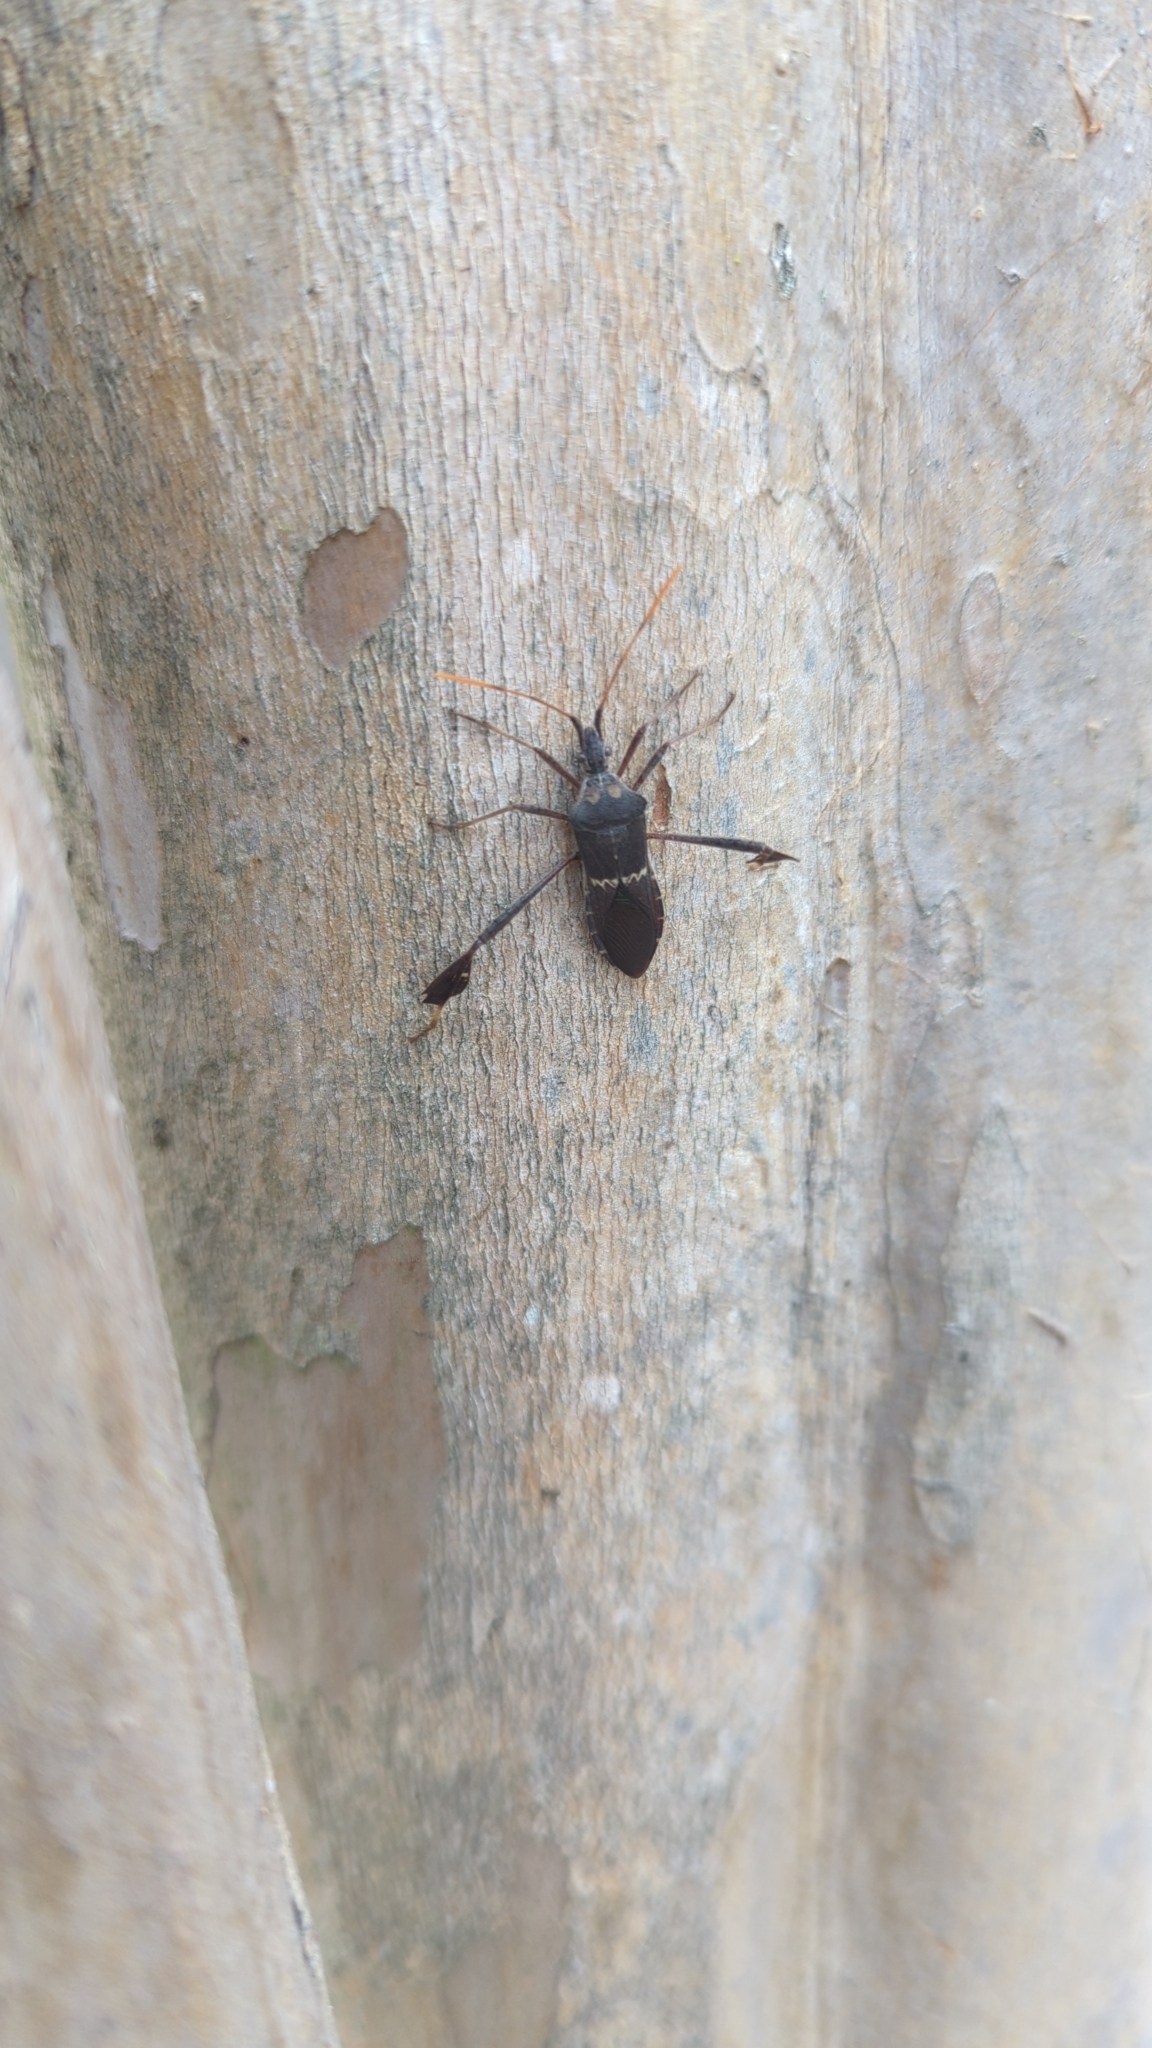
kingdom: Animalia
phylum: Arthropoda
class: Insecta
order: Hemiptera
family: Coreidae
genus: Leptoglossus
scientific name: Leptoglossus zonatus
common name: Large-legged bug
